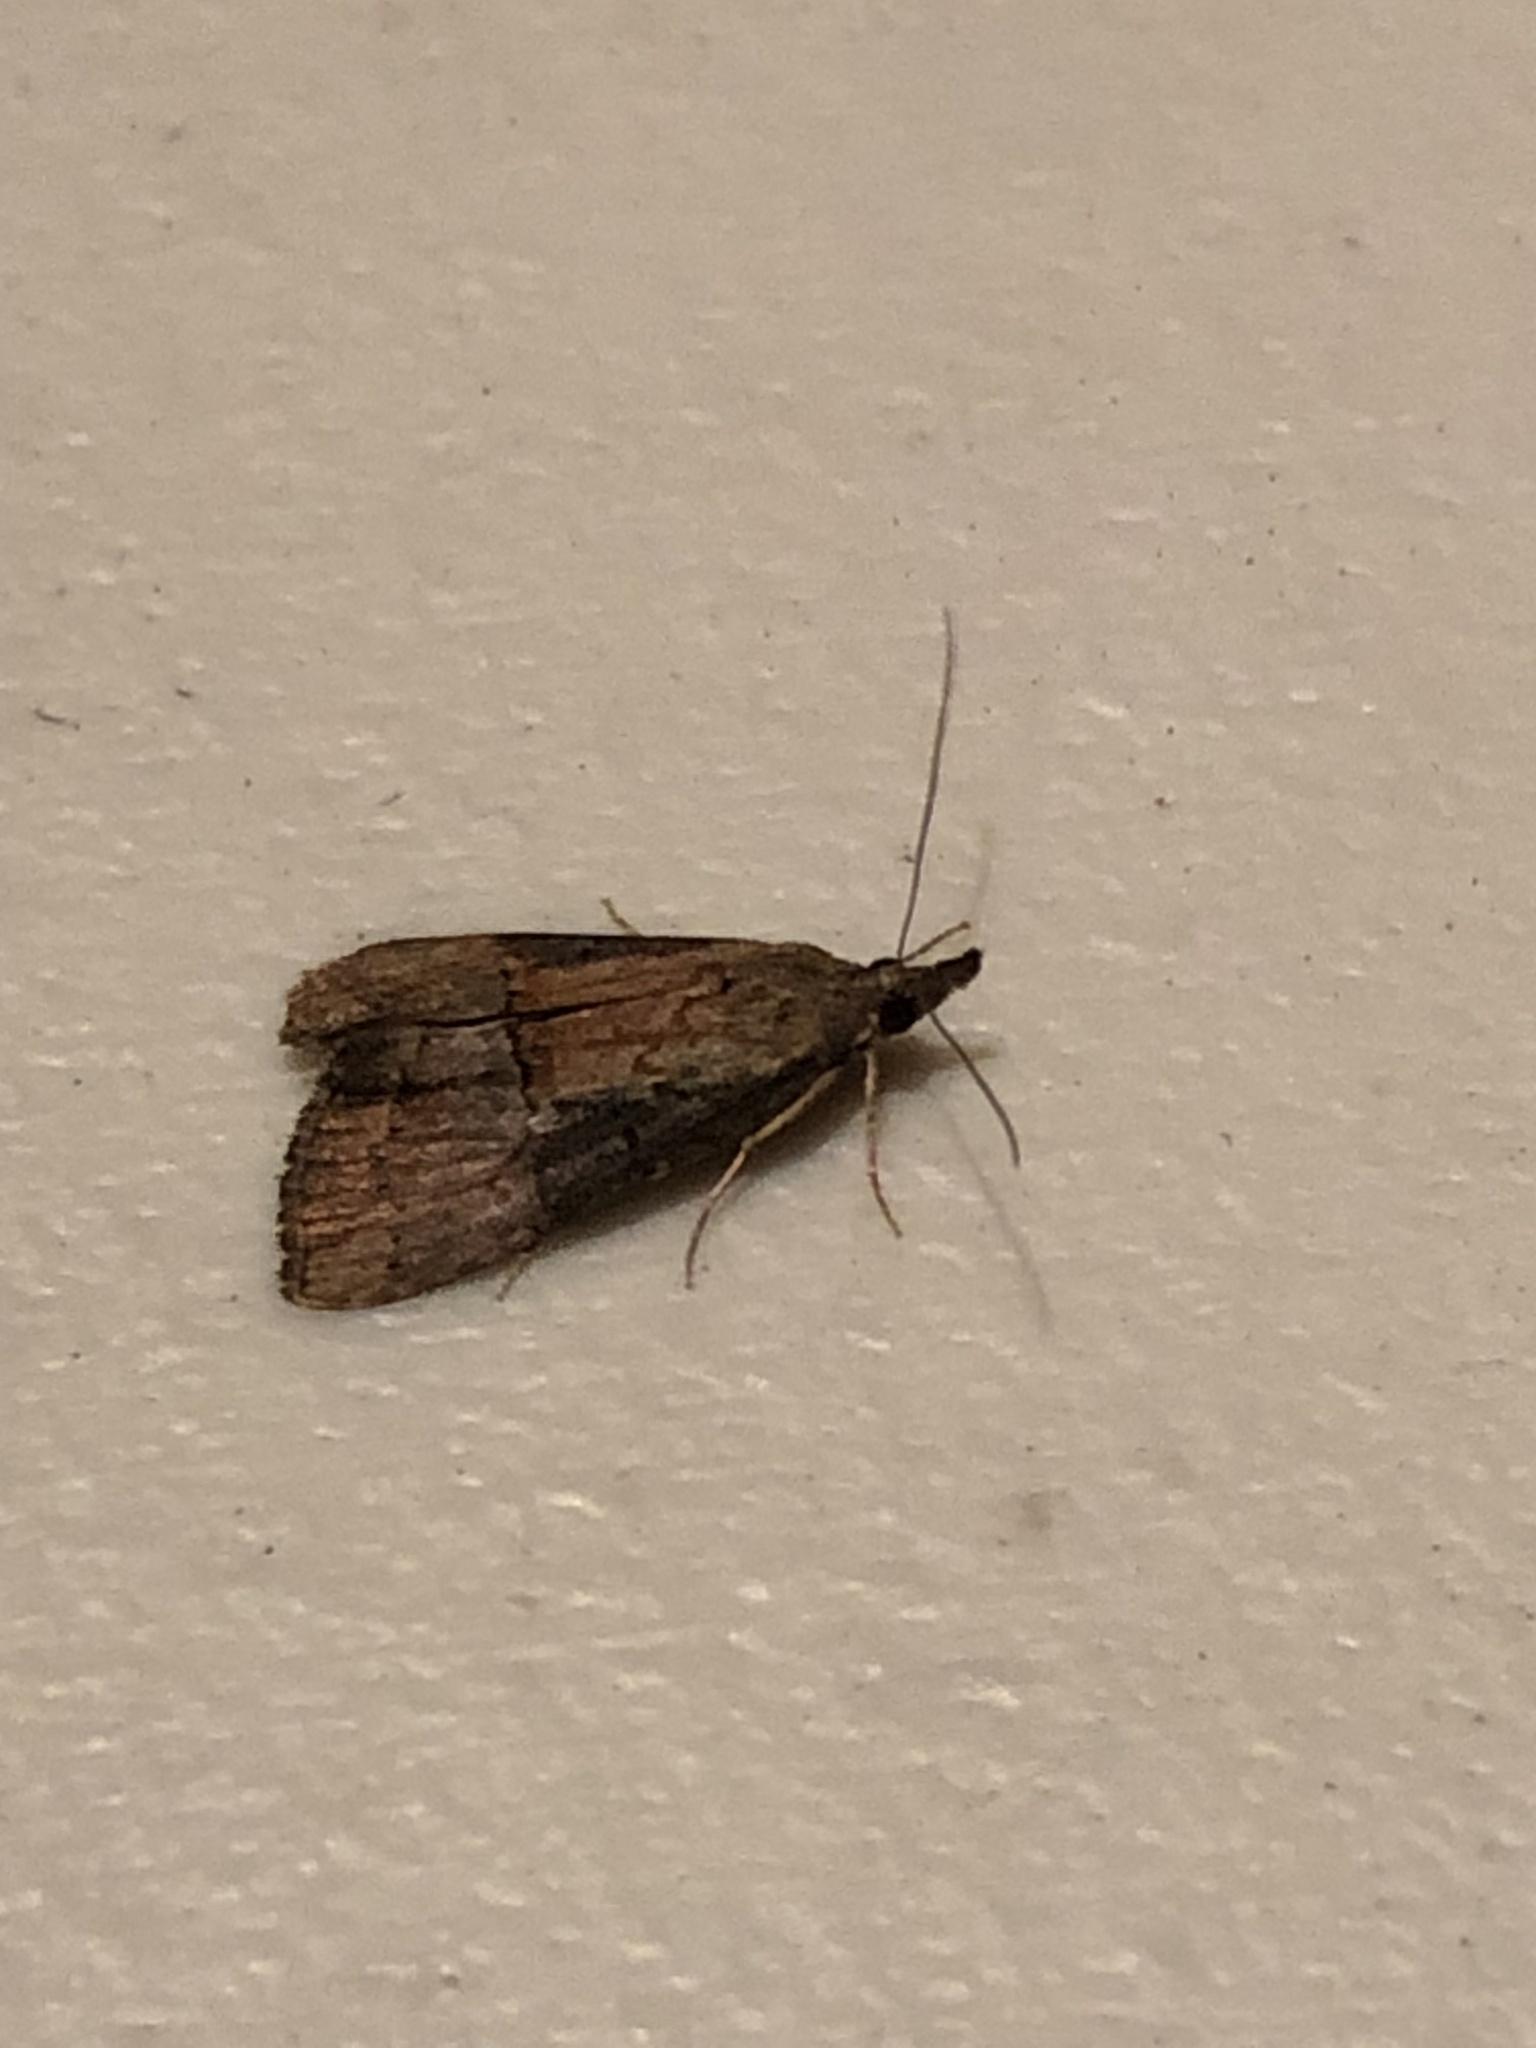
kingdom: Animalia
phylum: Arthropoda
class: Insecta
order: Lepidoptera
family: Erebidae
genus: Hypena
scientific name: Hypena scabra
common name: Green cloverworm
